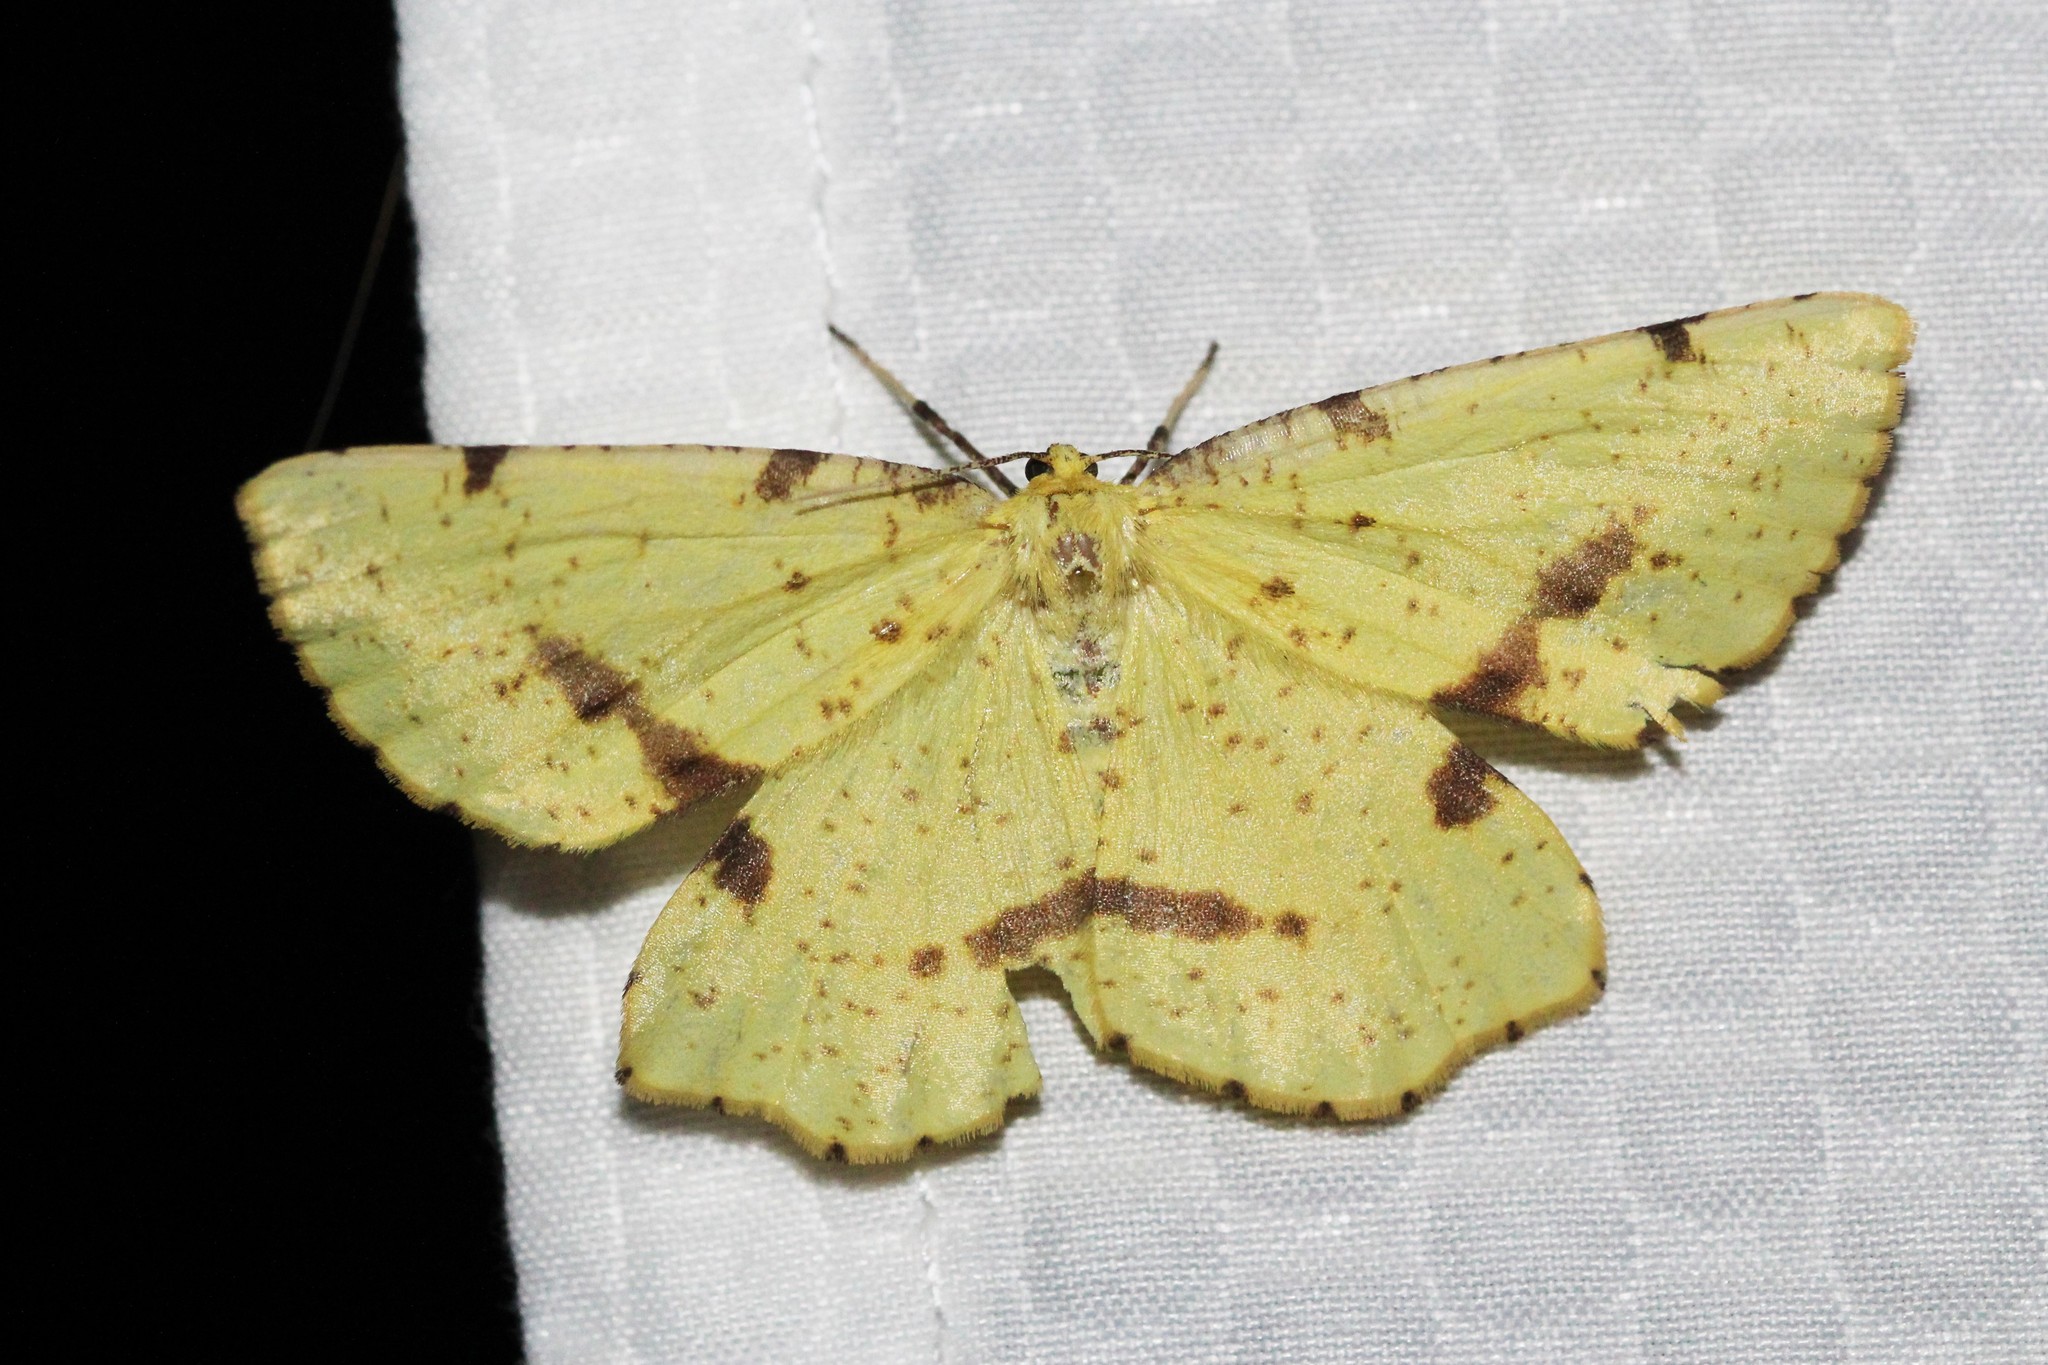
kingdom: Animalia
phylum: Arthropoda
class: Insecta
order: Lepidoptera
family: Geometridae
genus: Xanthotype
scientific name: Xanthotype
